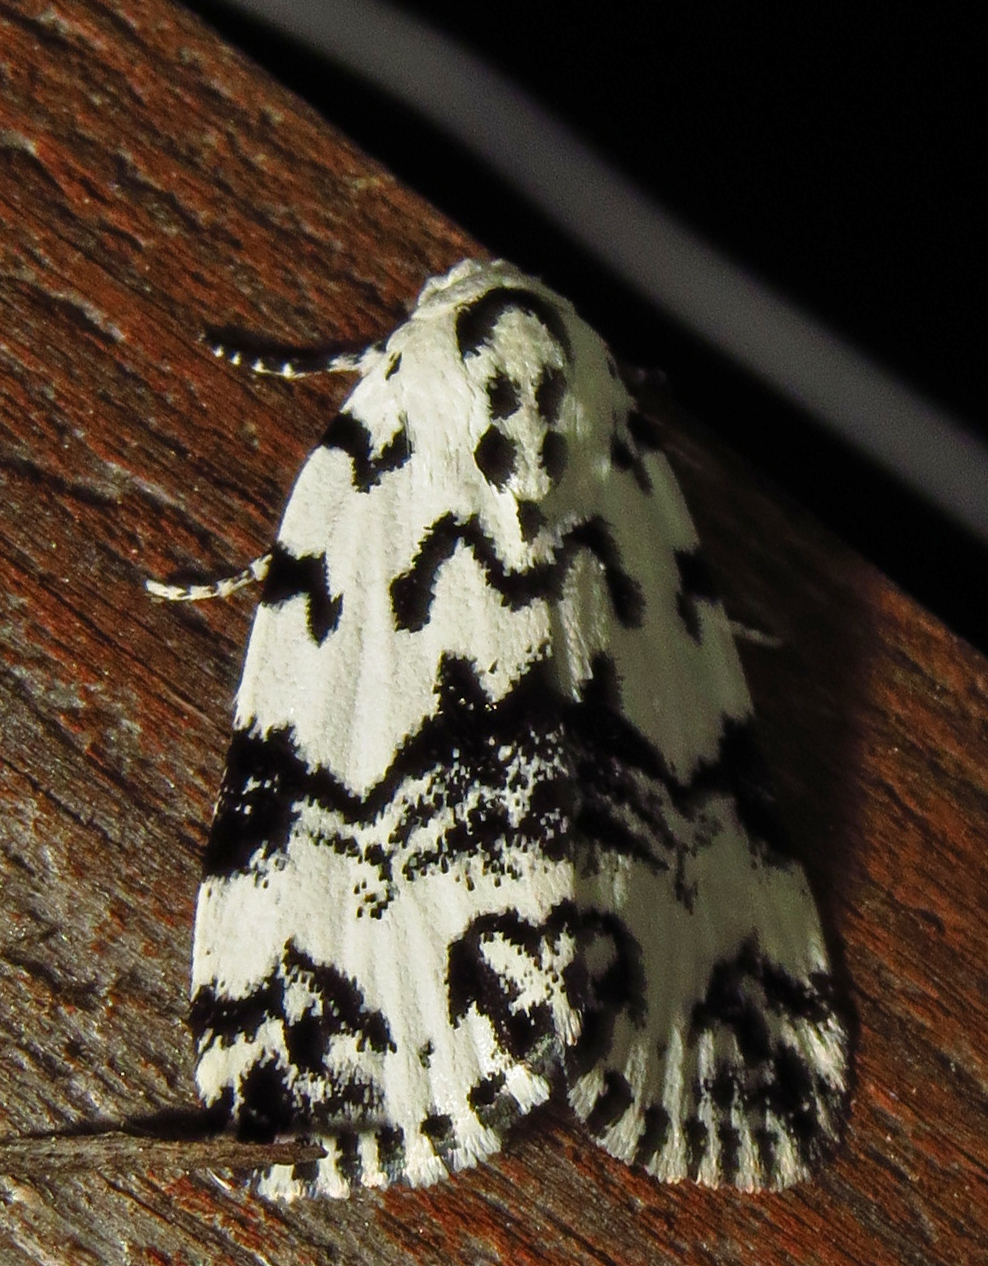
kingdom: Animalia
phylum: Arthropoda
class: Insecta
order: Lepidoptera
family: Noctuidae
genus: Polygrammate
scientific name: Polygrammate hebraeicum
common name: Hebrew moth
